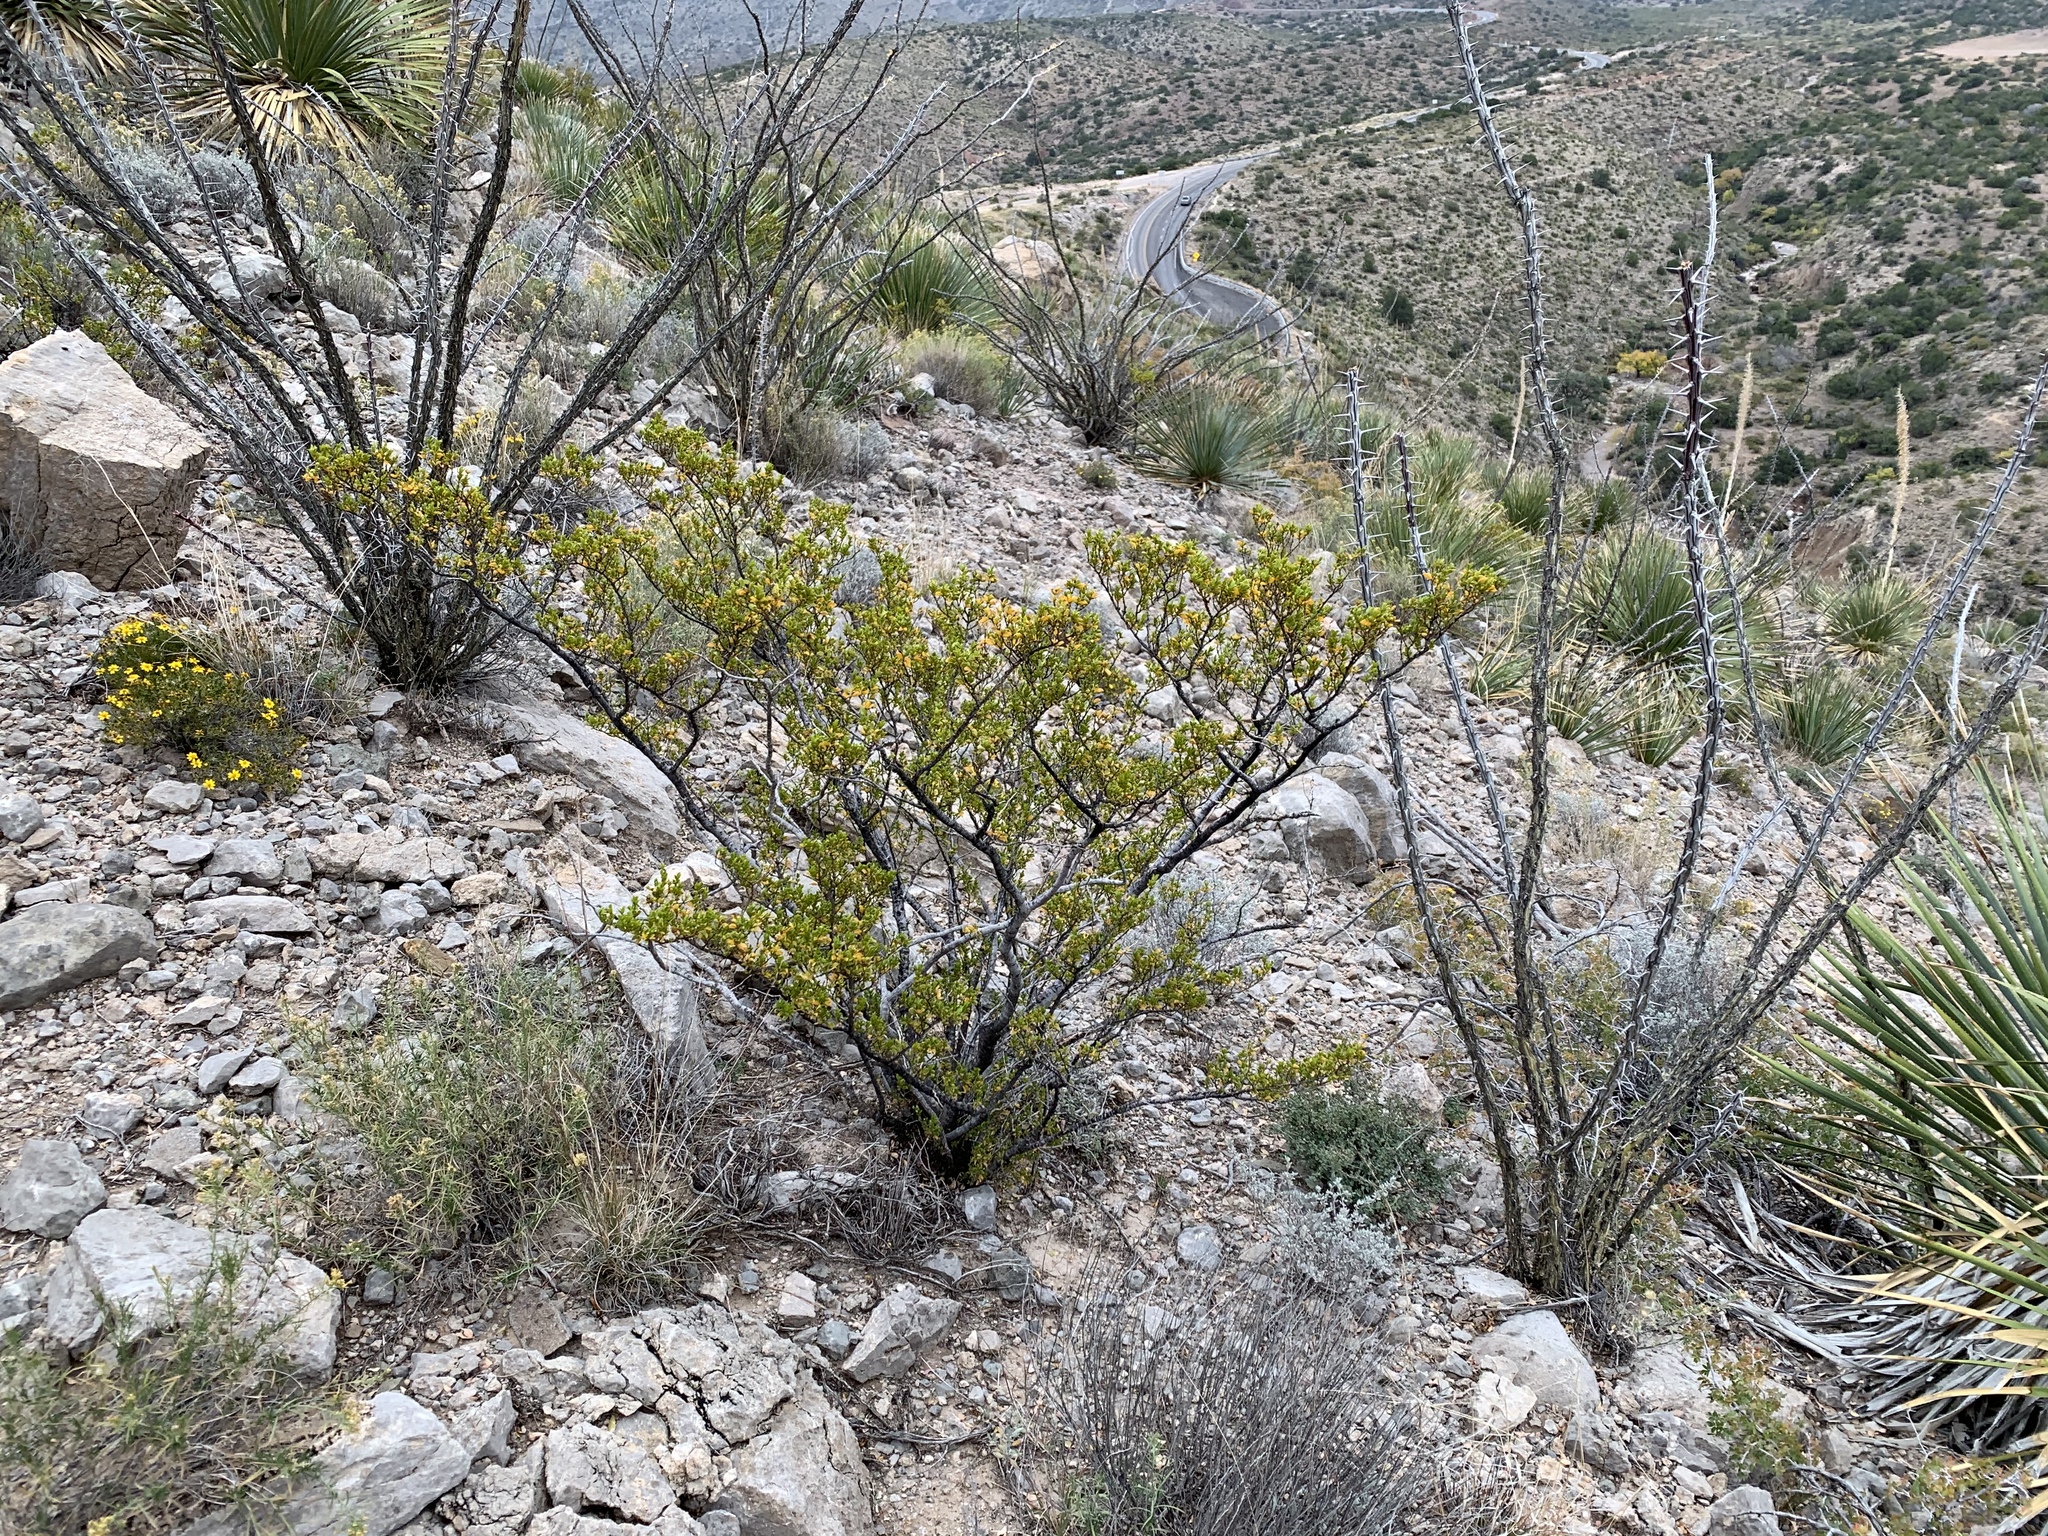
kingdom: Plantae
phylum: Tracheophyta
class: Magnoliopsida
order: Zygophyllales
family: Zygophyllaceae
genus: Larrea
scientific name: Larrea tridentata
